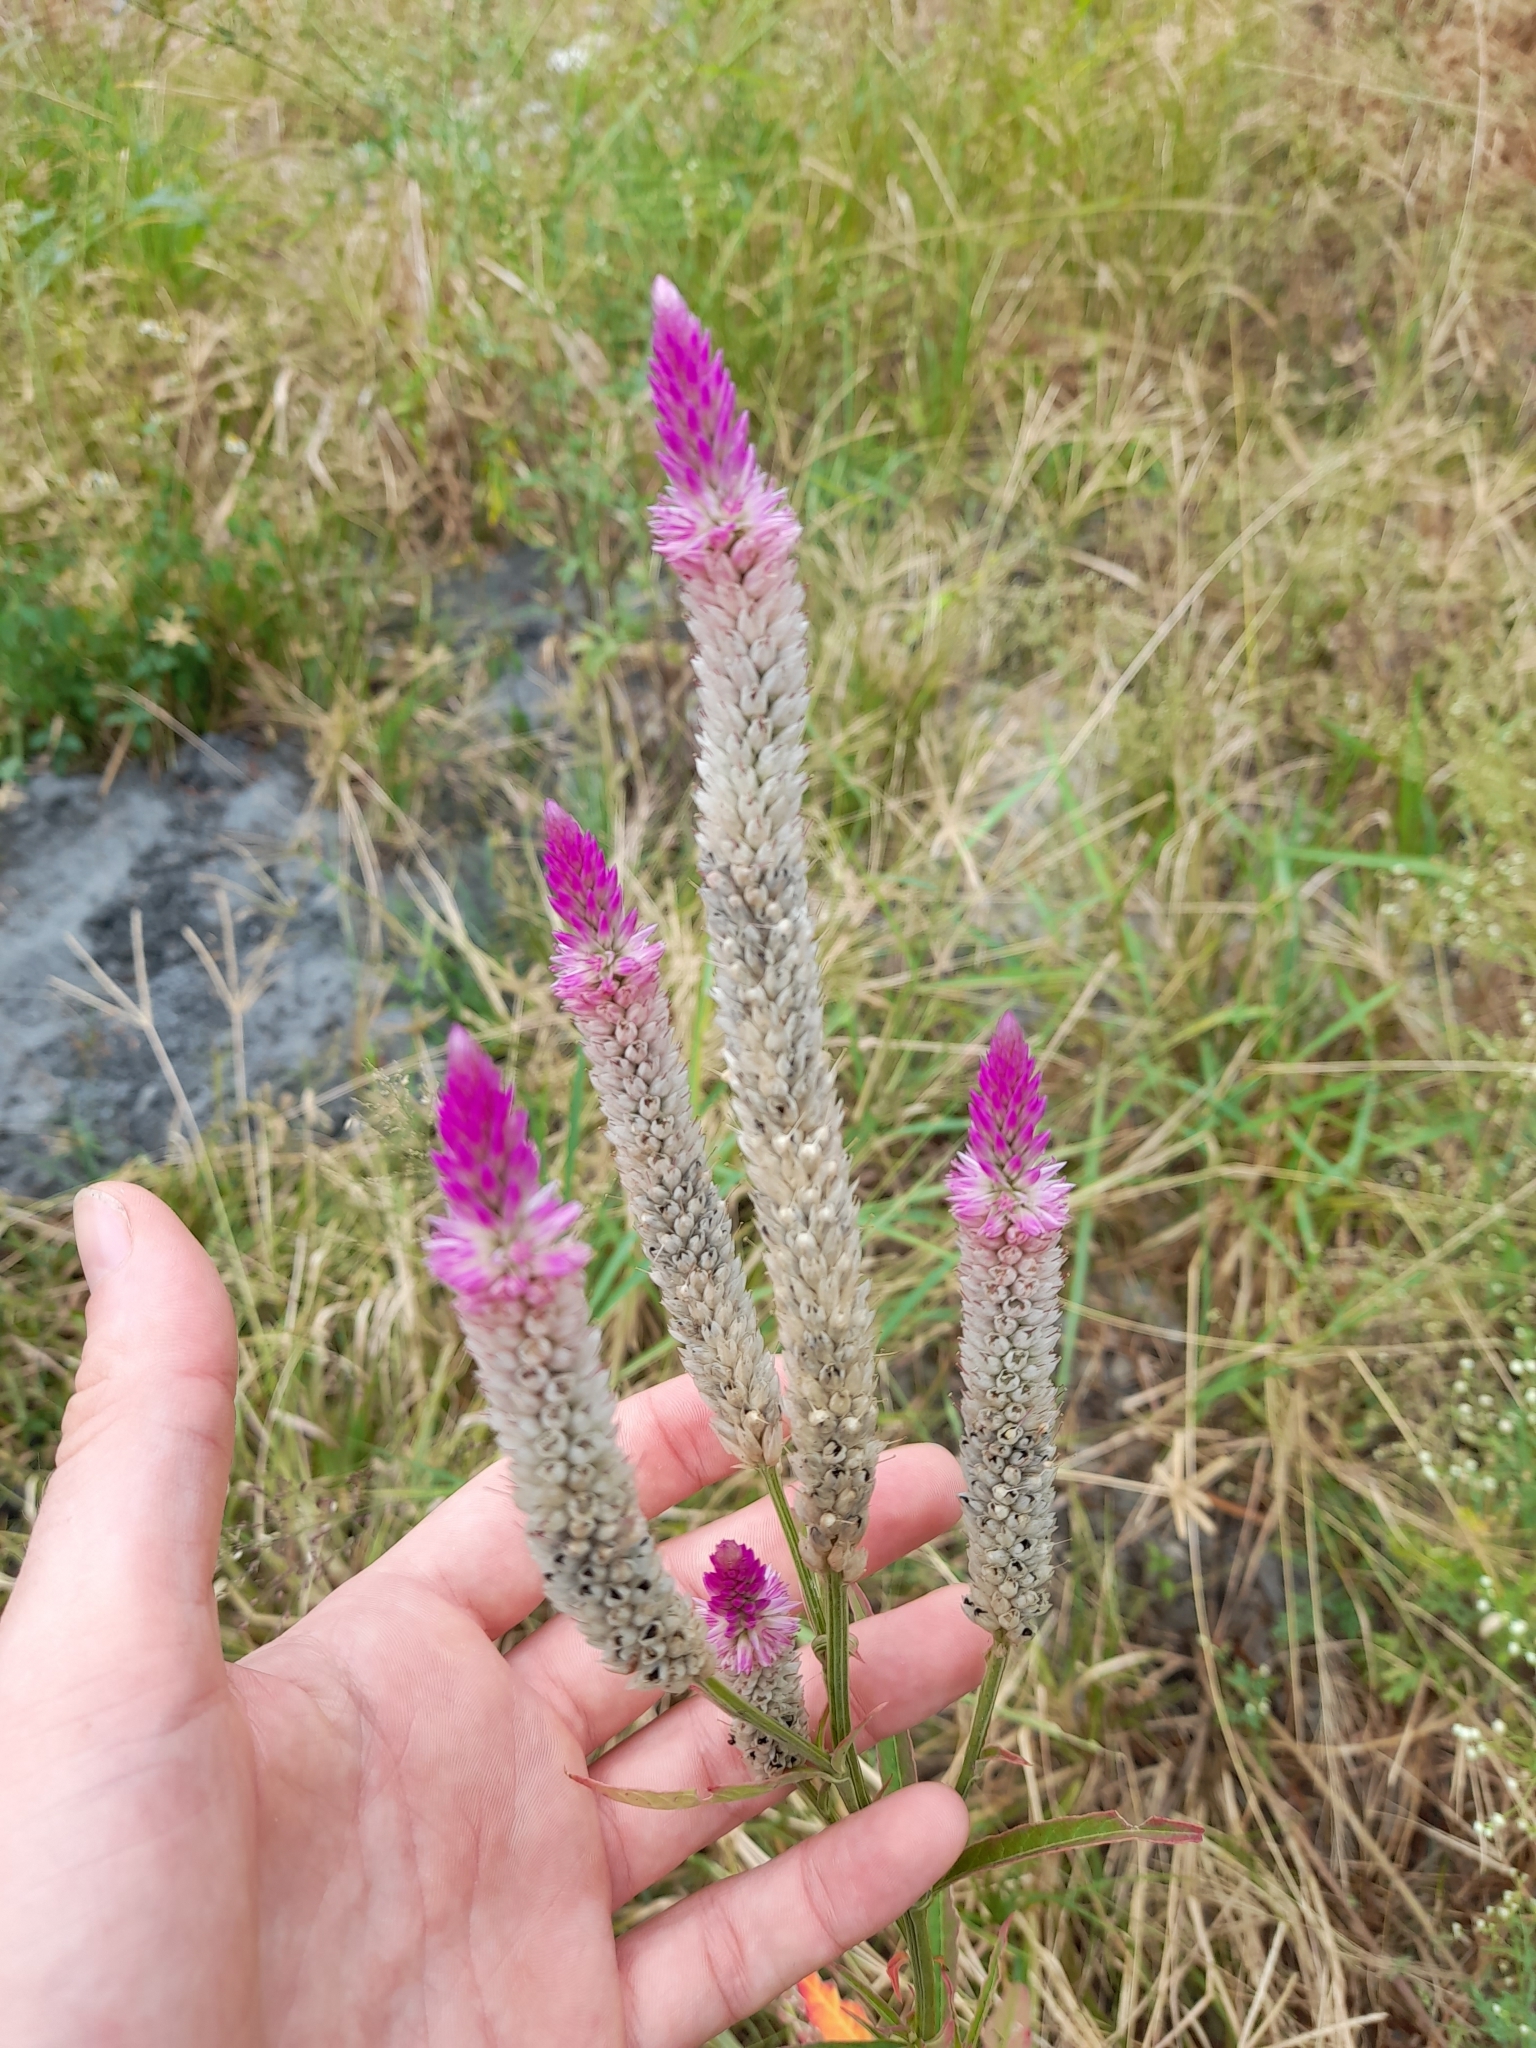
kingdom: Plantae
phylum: Tracheophyta
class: Magnoliopsida
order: Caryophyllales
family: Amaranthaceae
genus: Celosia
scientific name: Celosia argentea
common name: Feather cockscomb
